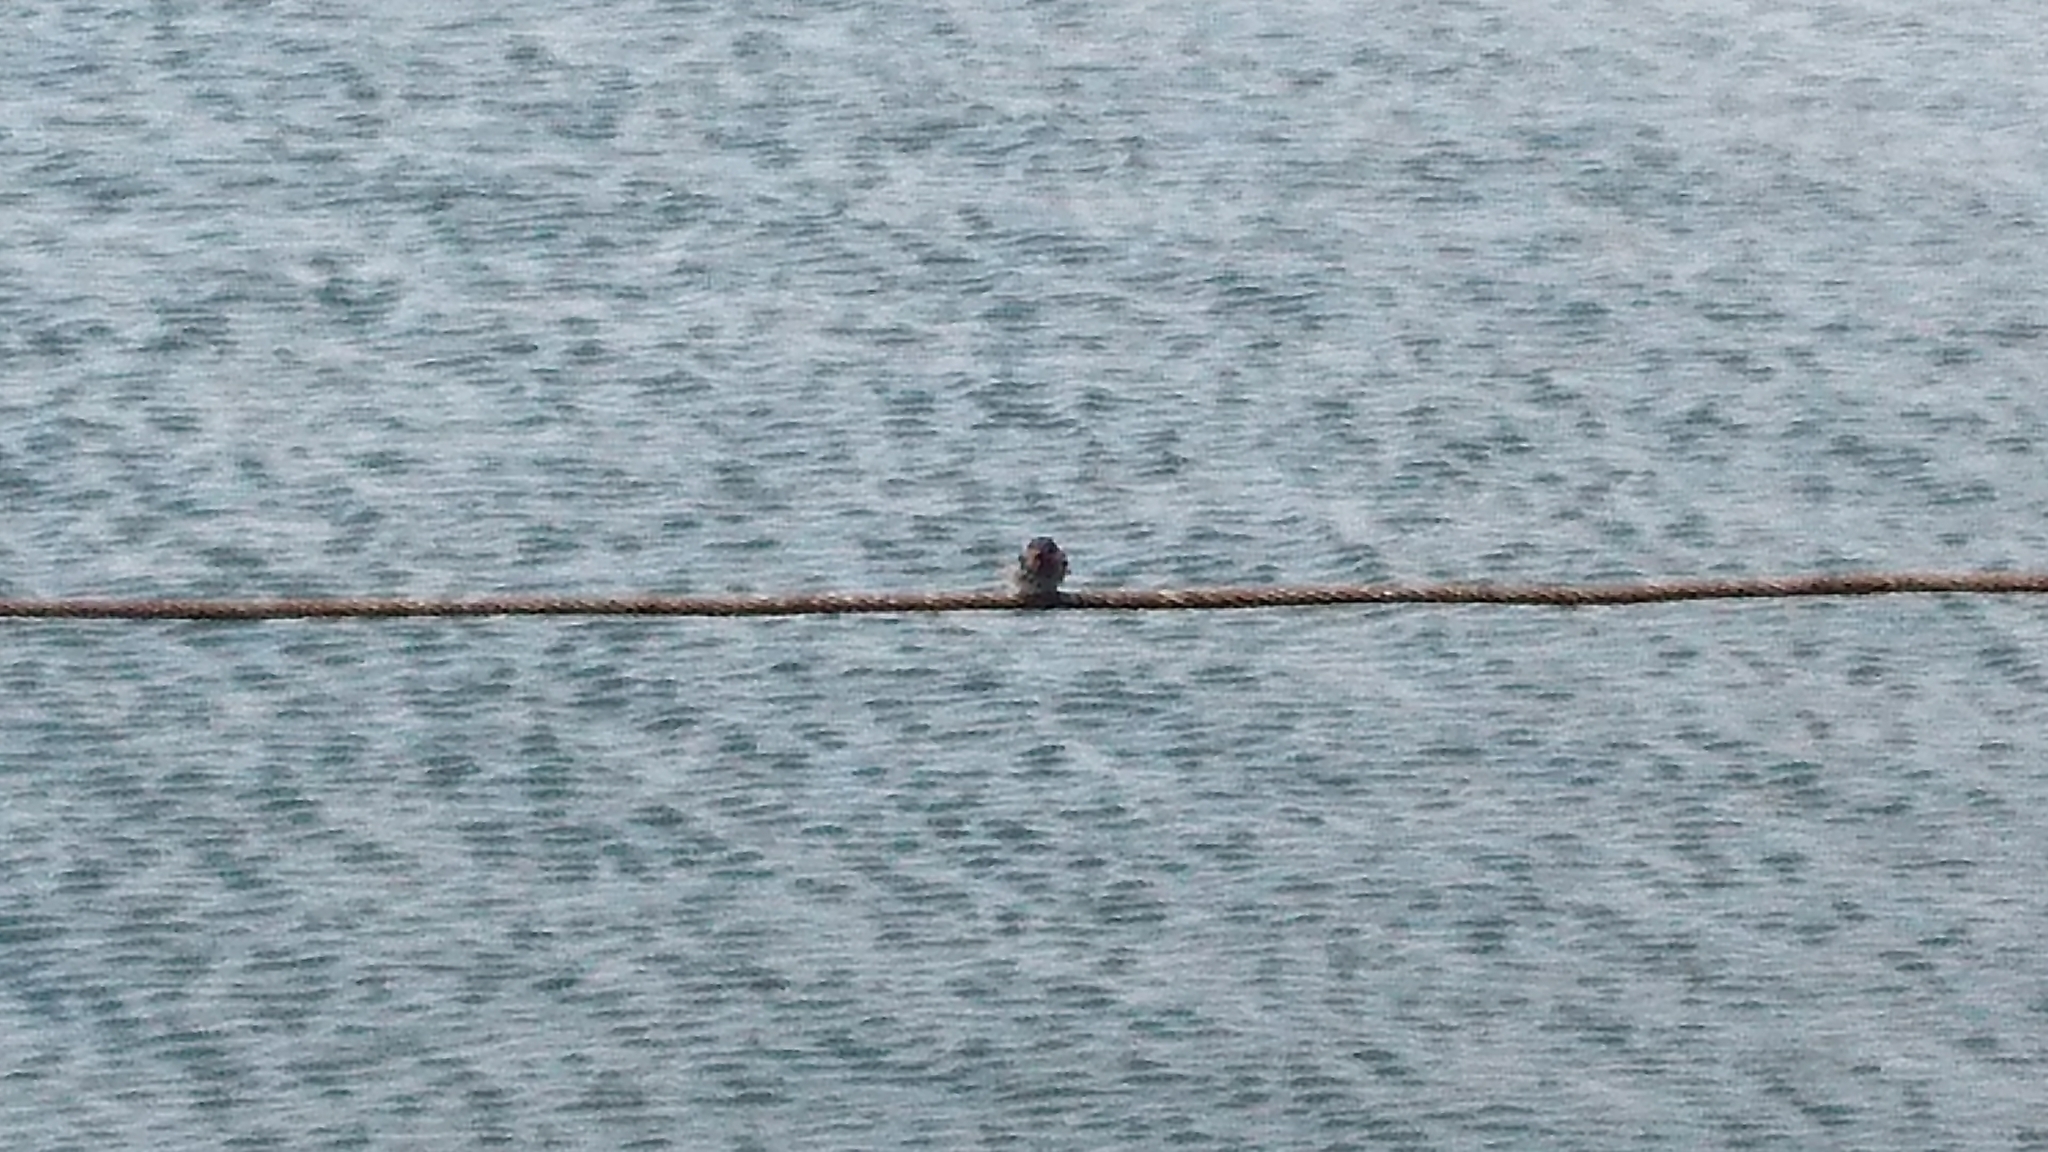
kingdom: Animalia
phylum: Chordata
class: Aves
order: Passeriformes
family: Hirundinidae
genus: Hirundo
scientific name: Hirundo neoxena
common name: Welcome swallow
